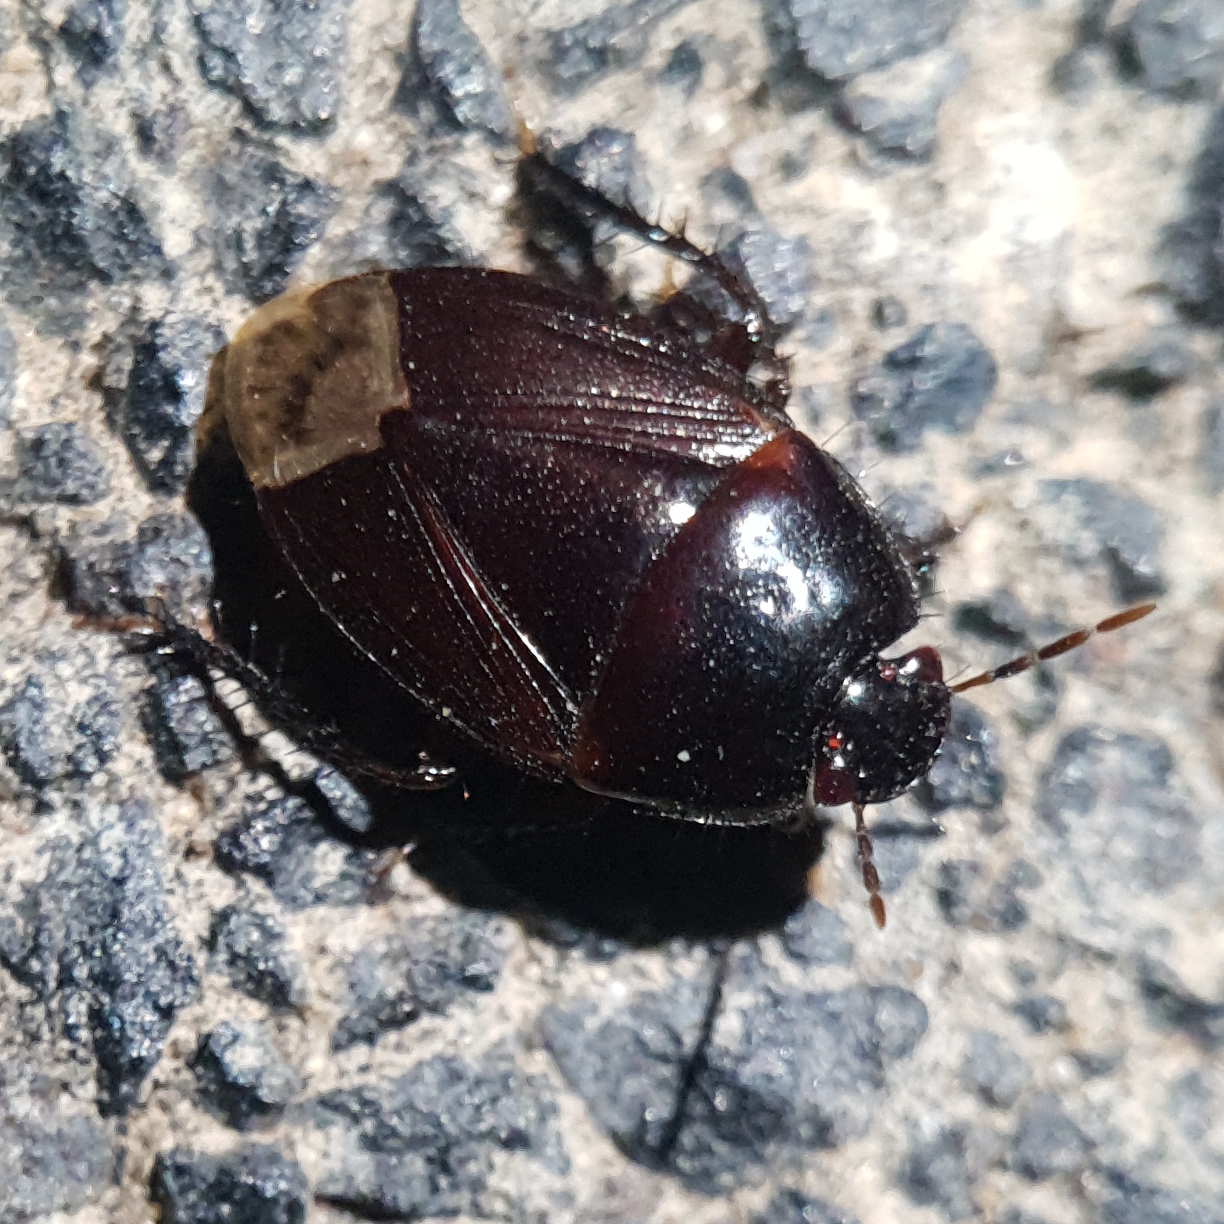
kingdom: Animalia
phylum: Arthropoda
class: Insecta
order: Hemiptera
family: Cydnidae
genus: Macroscytus
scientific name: Macroscytus brunneus
